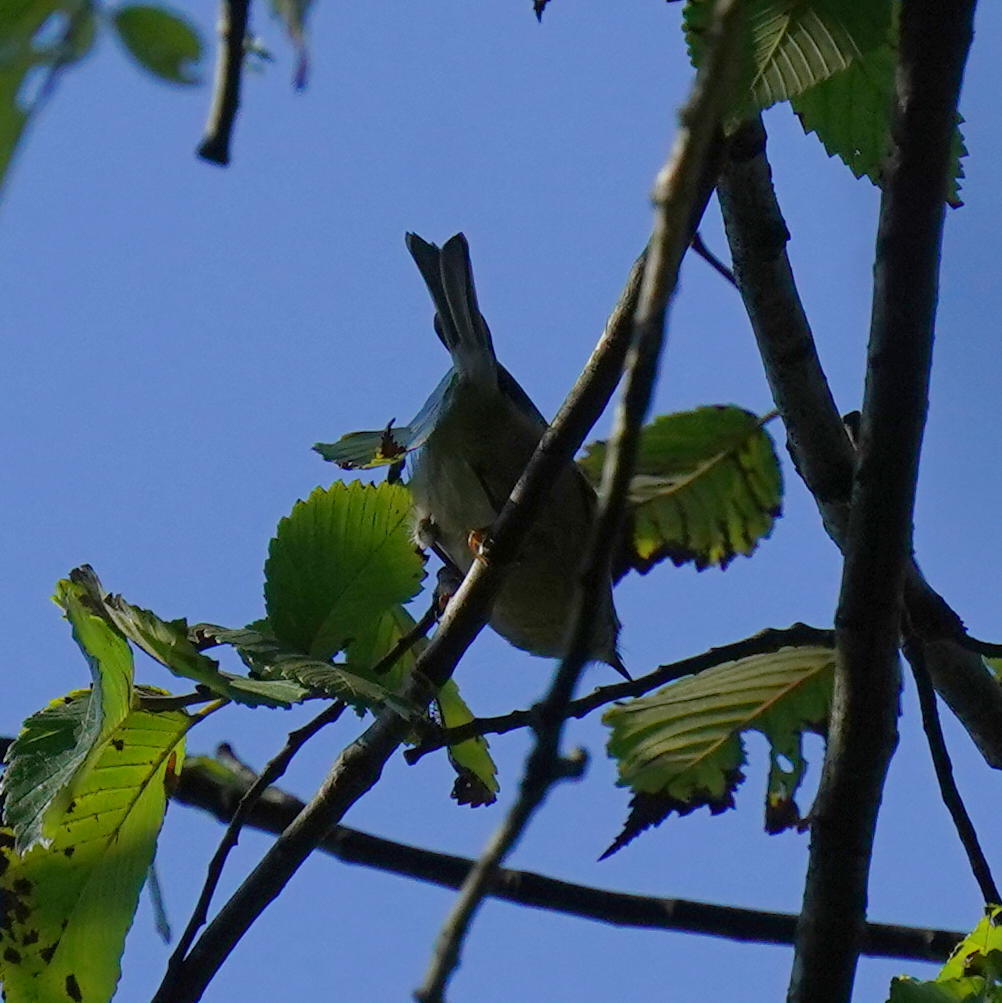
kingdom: Animalia
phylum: Chordata
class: Aves
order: Passeriformes
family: Regulidae
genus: Regulus
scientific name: Regulus satrapa
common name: Golden-crowned kinglet
